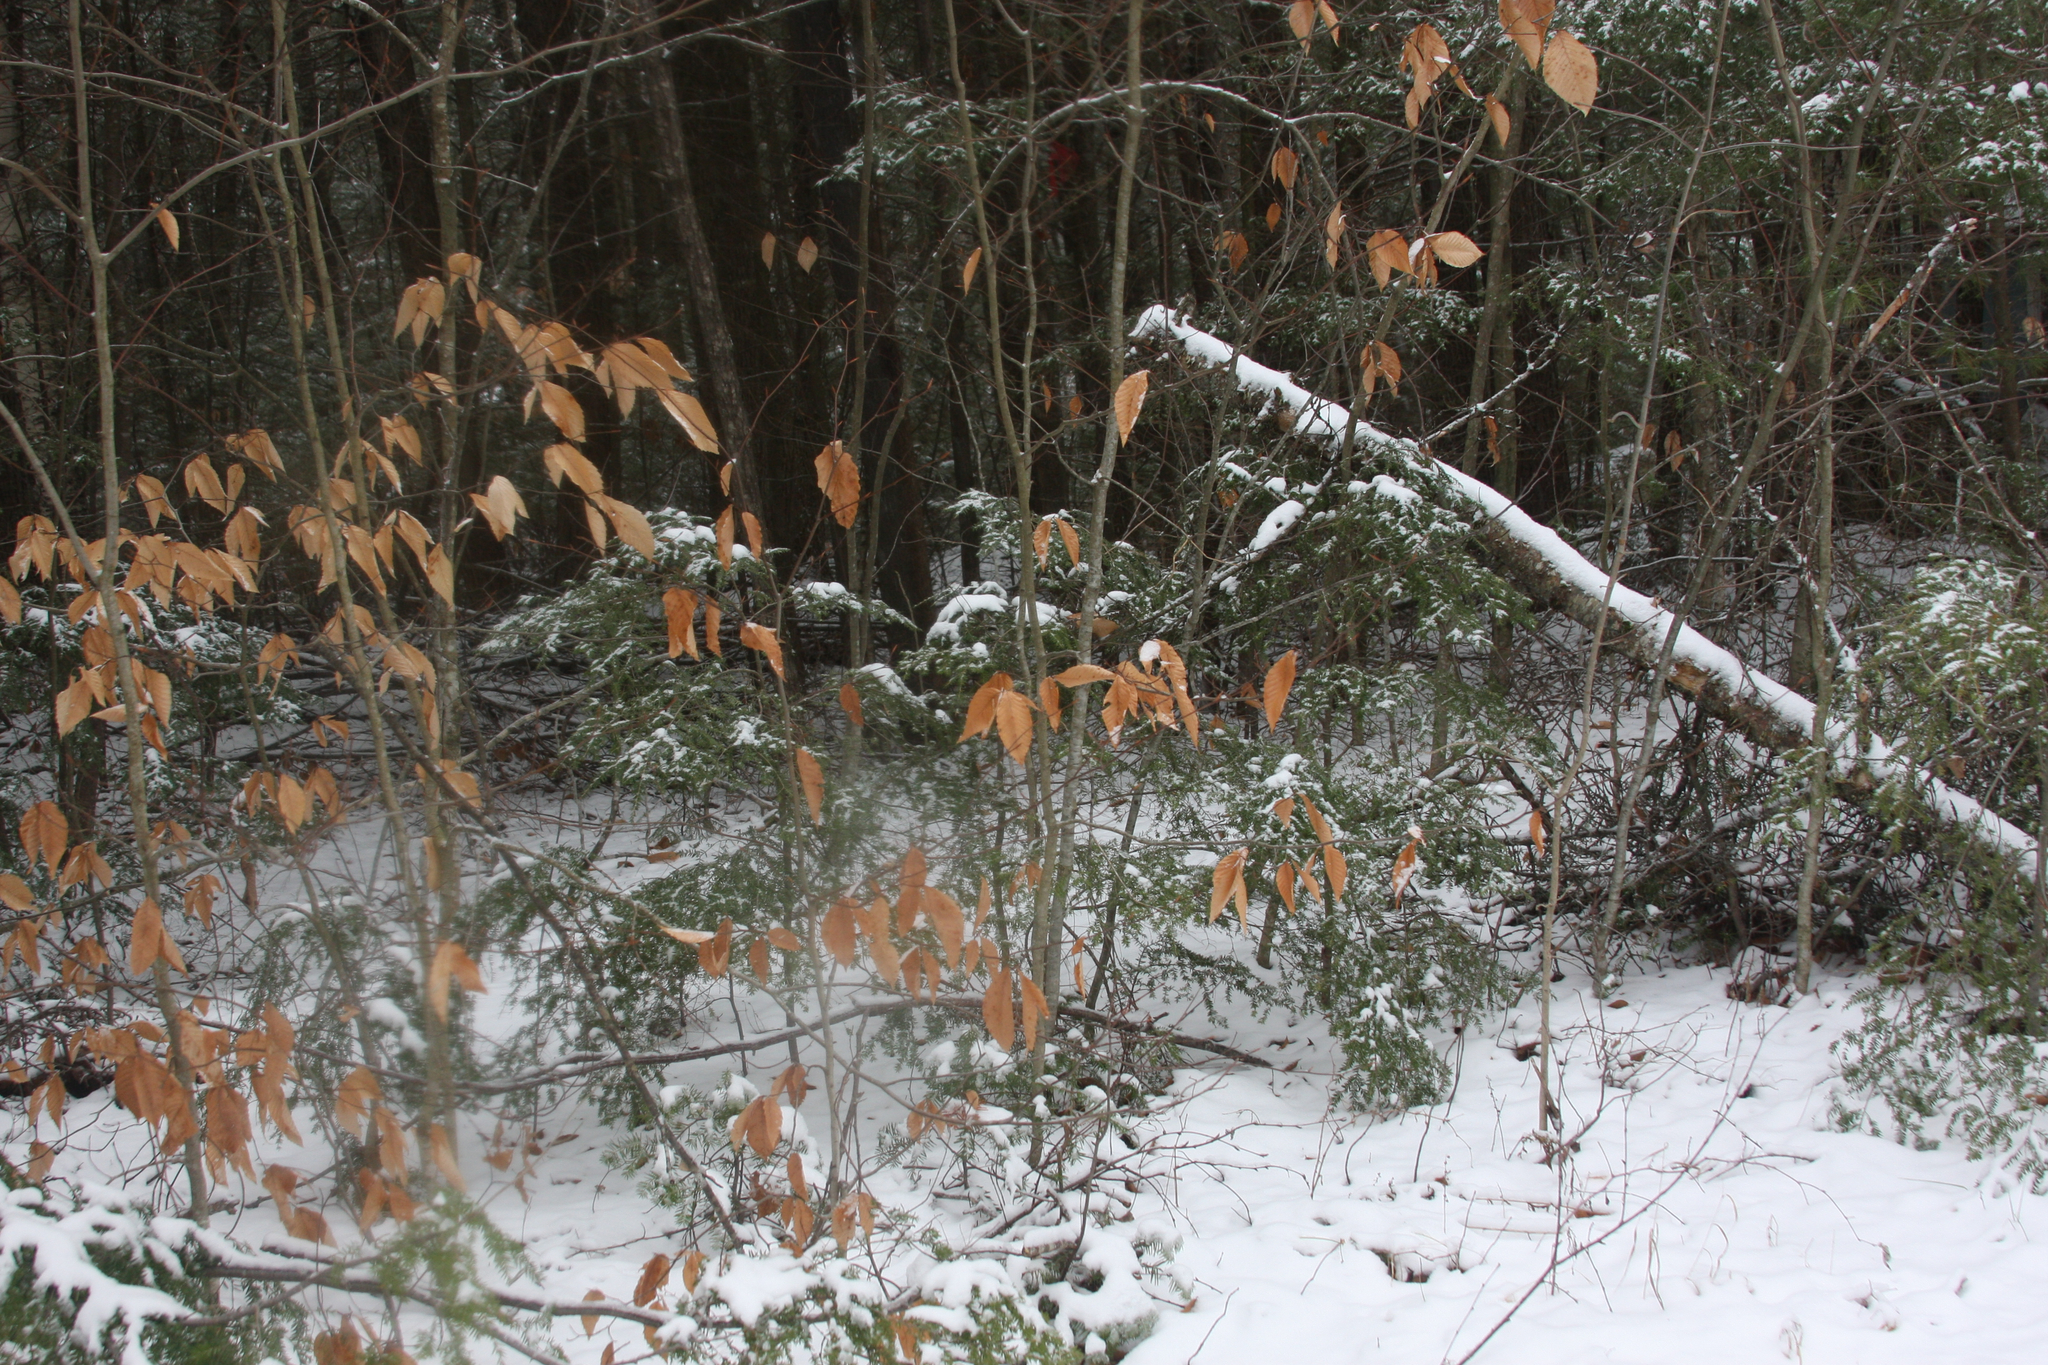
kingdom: Plantae
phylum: Tracheophyta
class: Magnoliopsida
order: Fagales
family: Fagaceae
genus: Fagus
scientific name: Fagus grandifolia
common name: American beech
